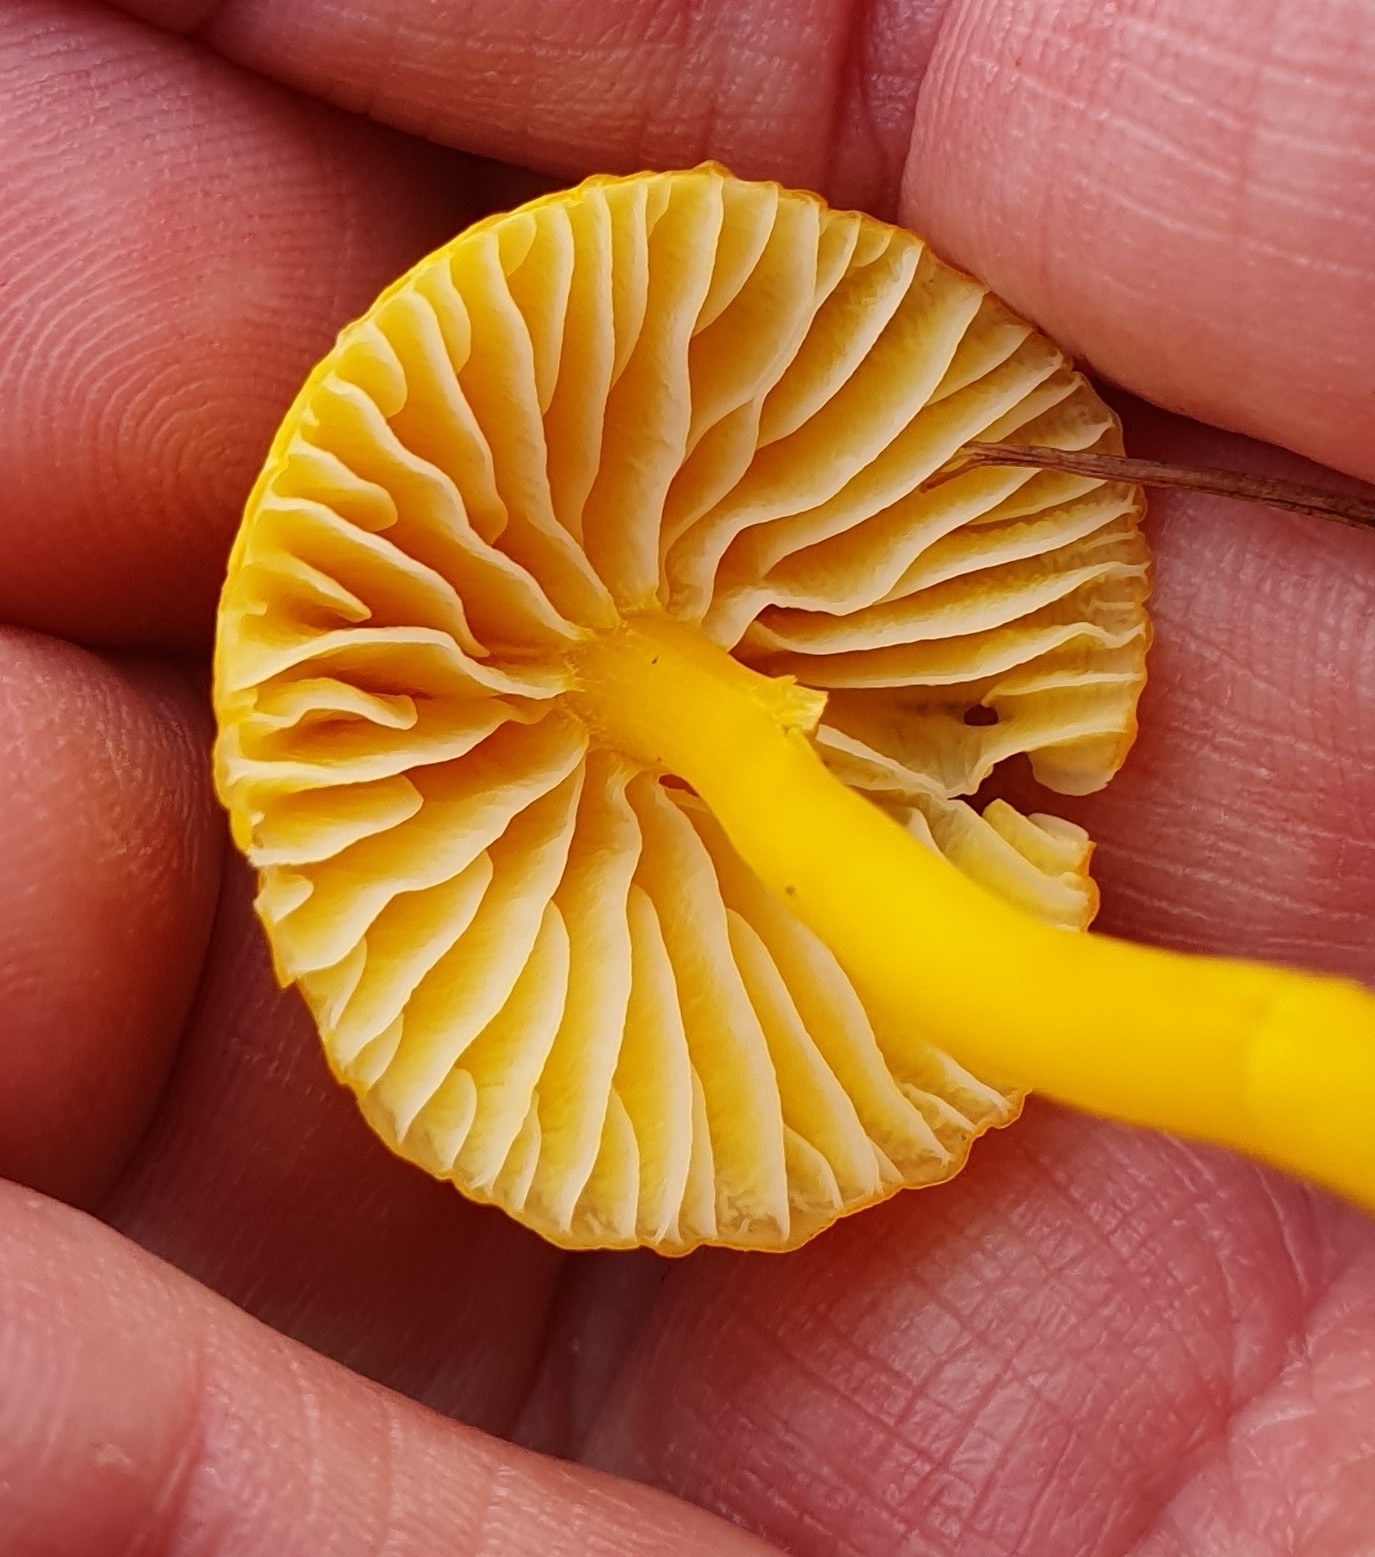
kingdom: Fungi
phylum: Basidiomycota
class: Agaricomycetes
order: Agaricales
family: Hygrophoraceae
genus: Hygrocybe
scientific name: Hygrocybe ceracea
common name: Butter waxcap
